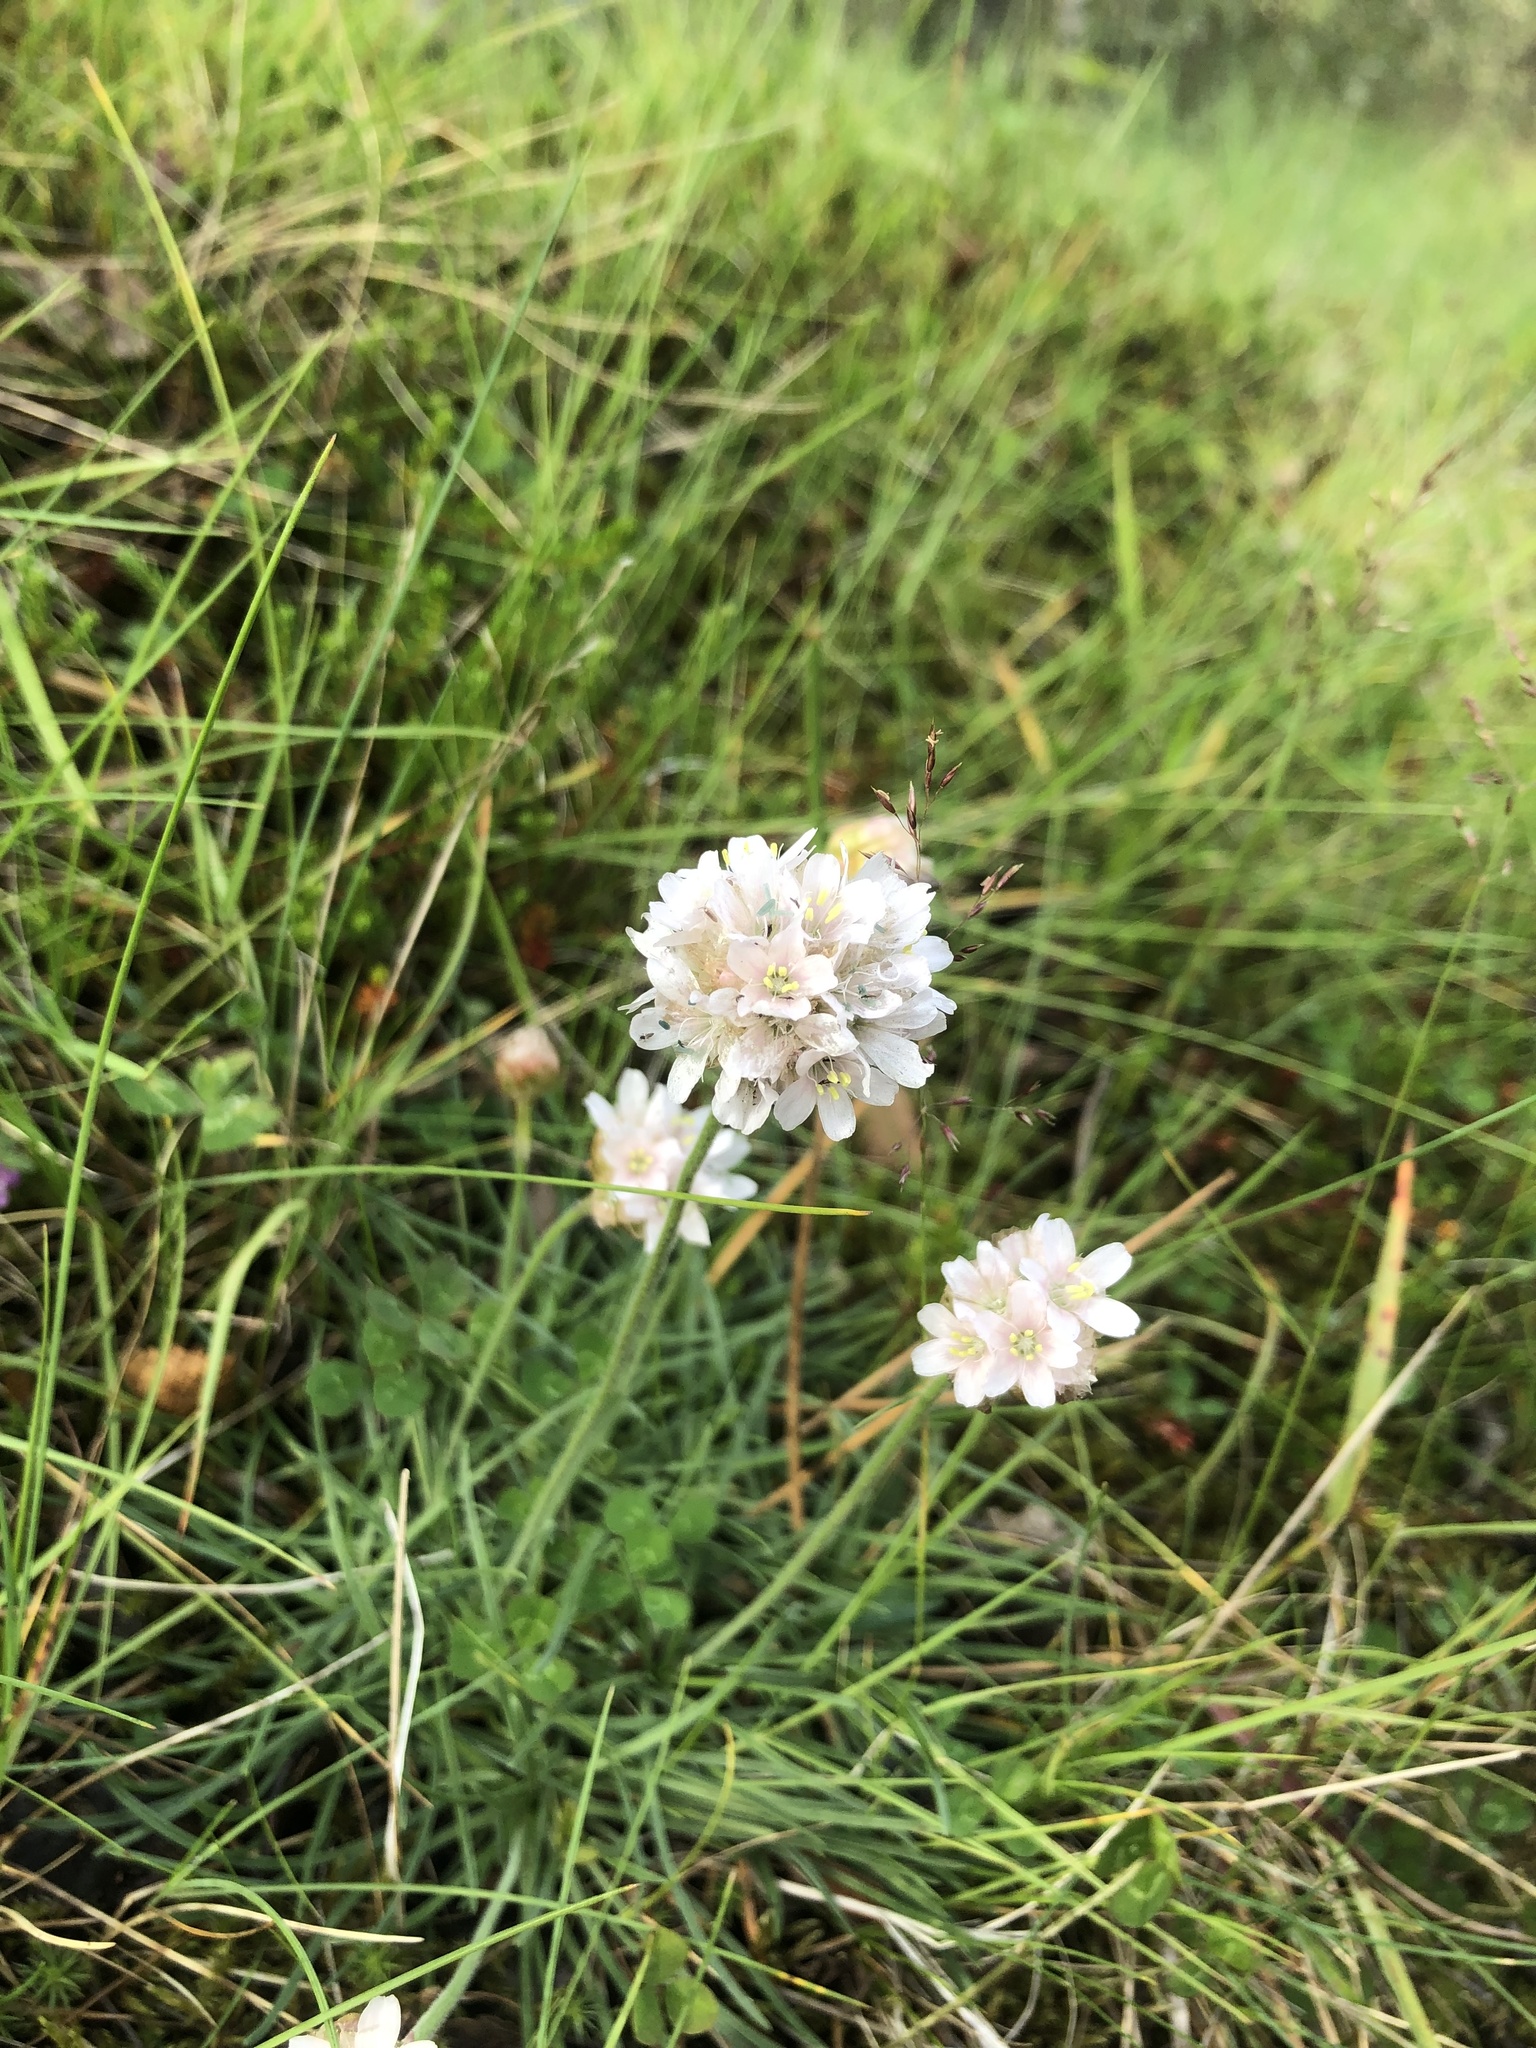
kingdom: Plantae
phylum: Tracheophyta
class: Magnoliopsida
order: Caryophyllales
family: Plumbaginaceae
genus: Armeria
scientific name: Armeria maritima
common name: Thrift
